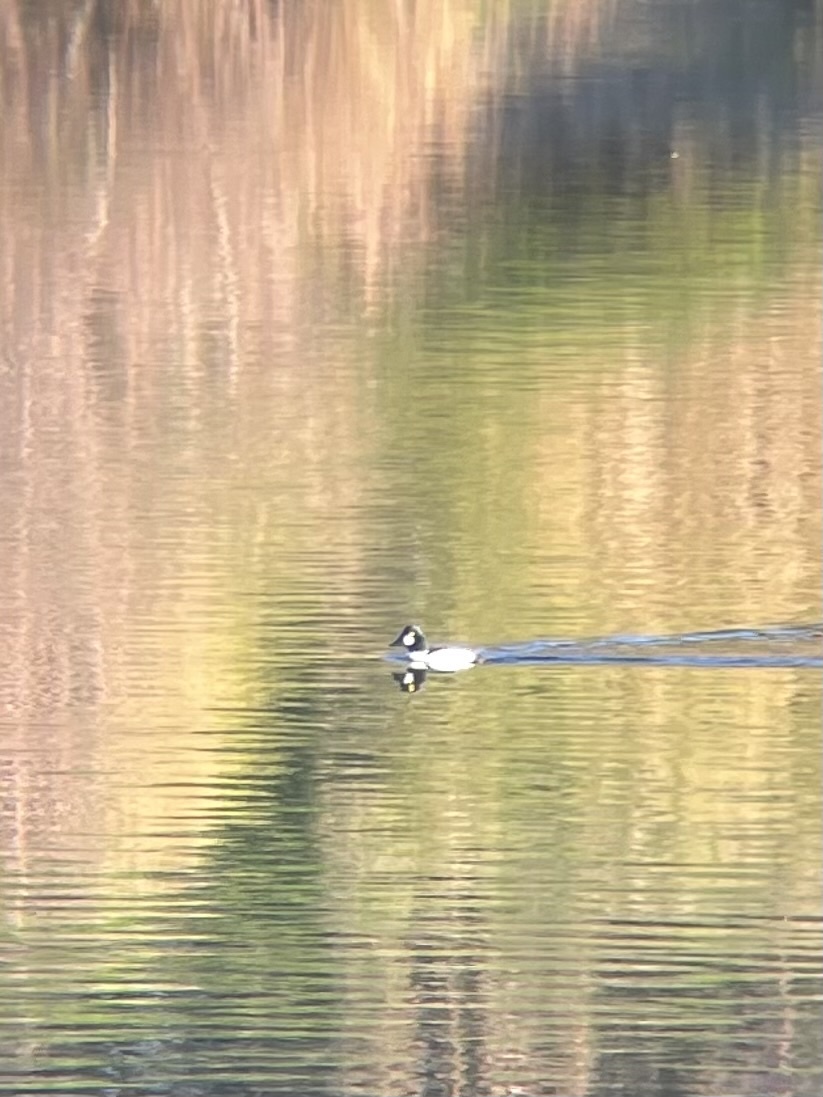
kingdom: Animalia
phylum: Chordata
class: Aves
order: Anseriformes
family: Anatidae
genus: Bucephala
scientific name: Bucephala clangula
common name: Common goldeneye
